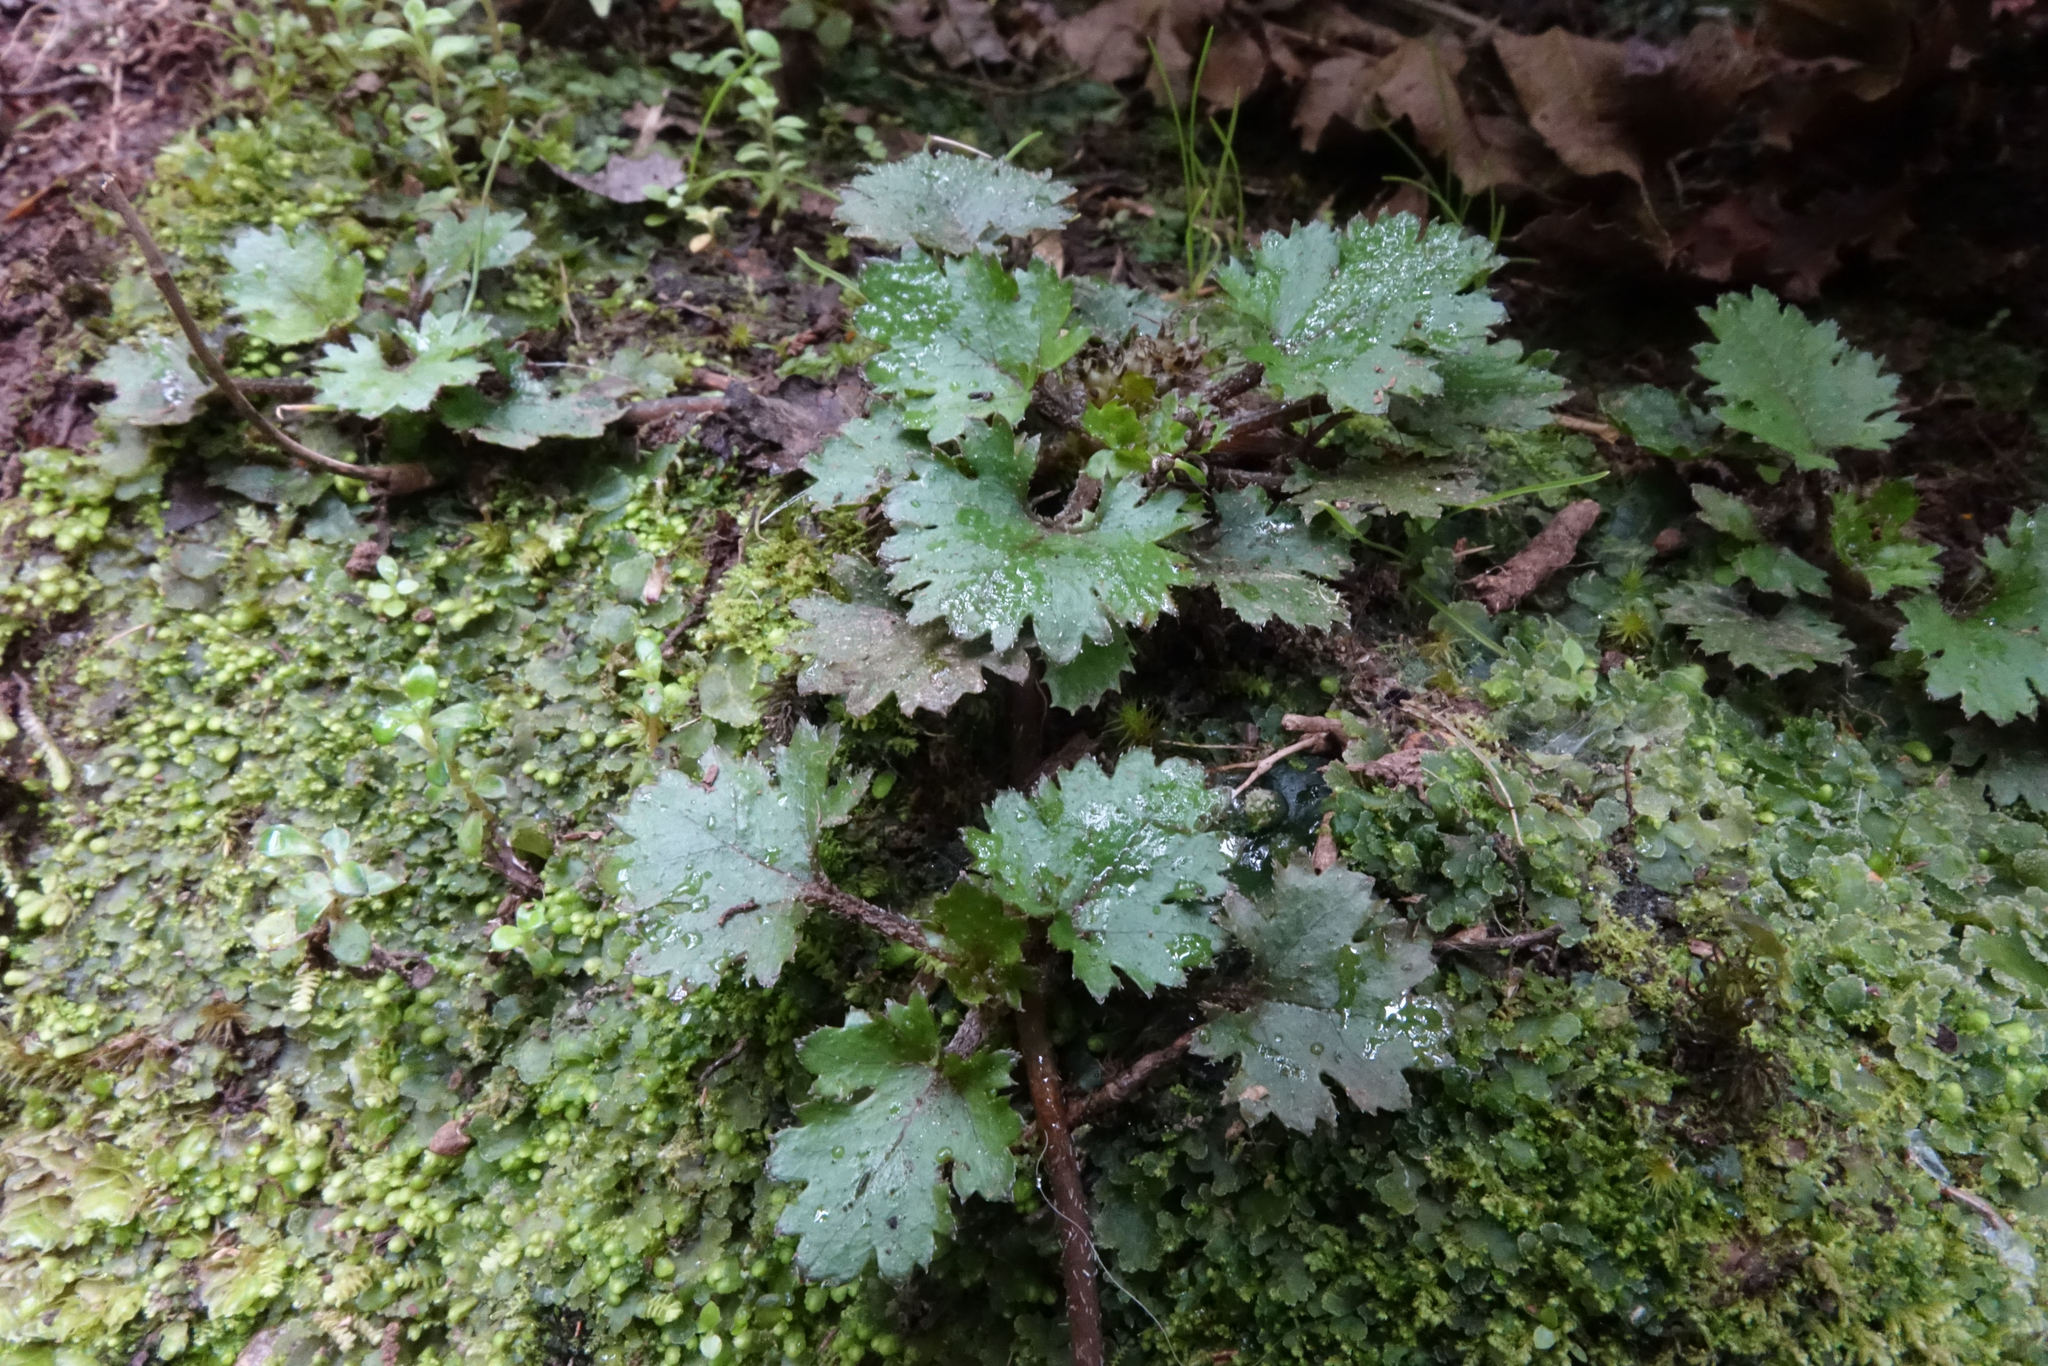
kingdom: Plantae
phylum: Tracheophyta
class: Magnoliopsida
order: Gunnerales
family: Gunneraceae
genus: Gunnera
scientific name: Gunnera monoica
